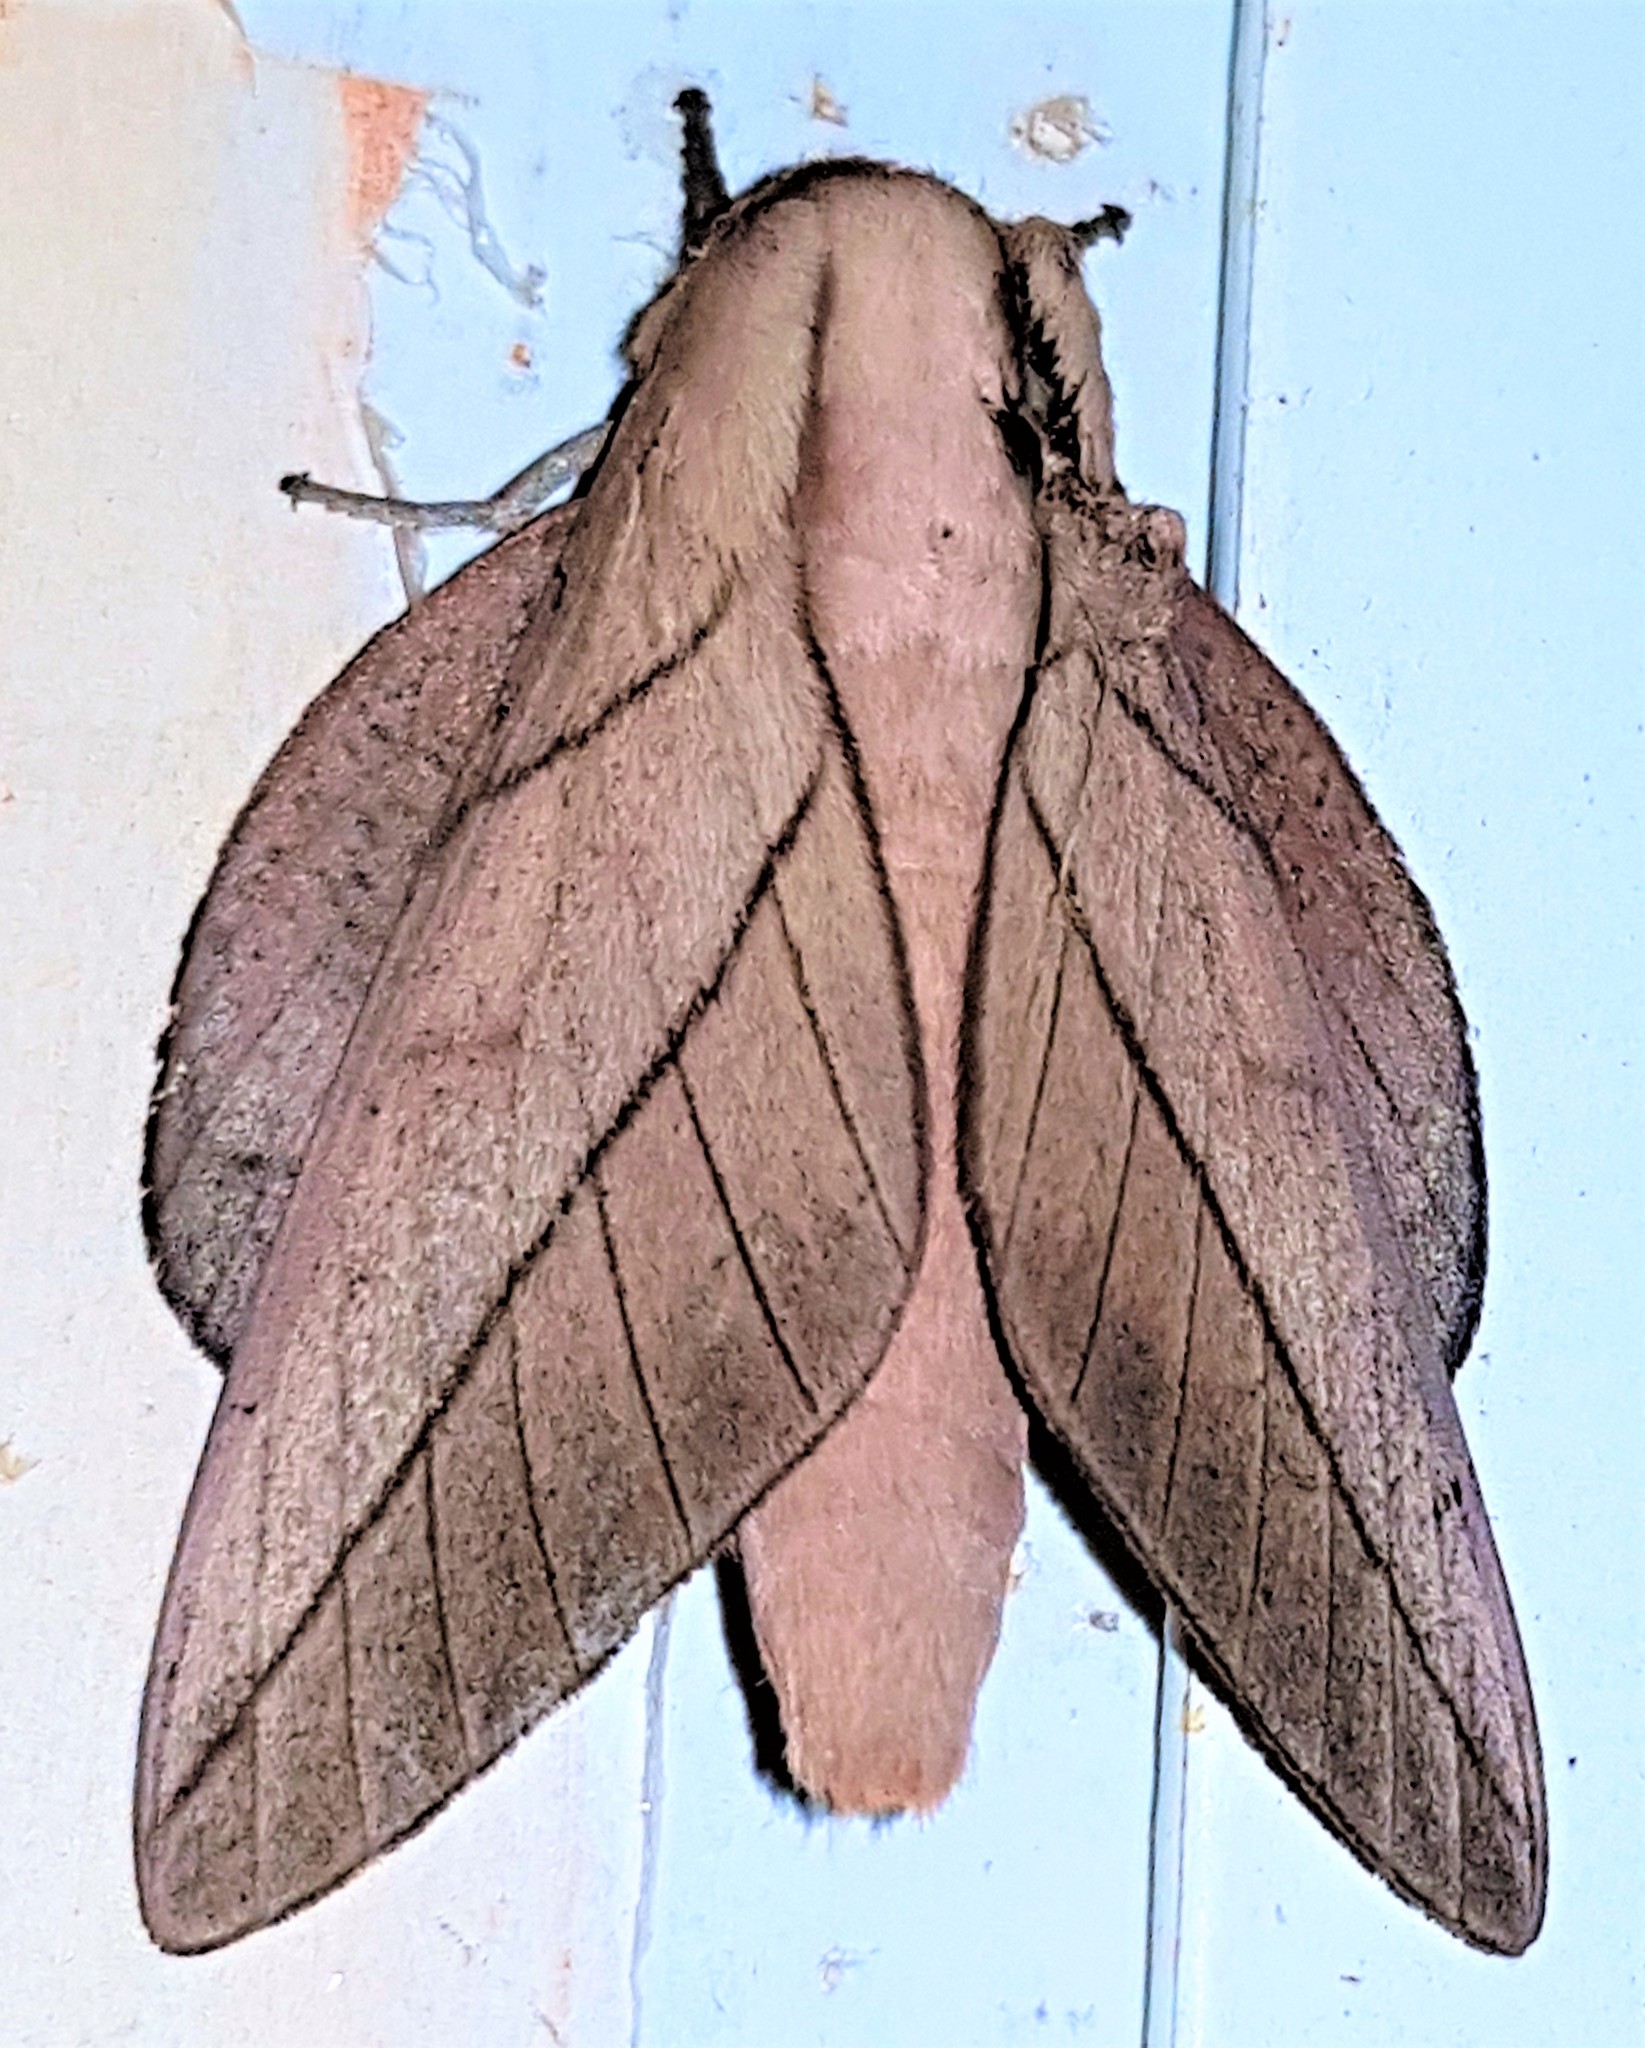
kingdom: Animalia
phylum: Arthropoda
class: Insecta
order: Lepidoptera
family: Saturniidae
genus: Citioica
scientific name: Citioica anthonilis
